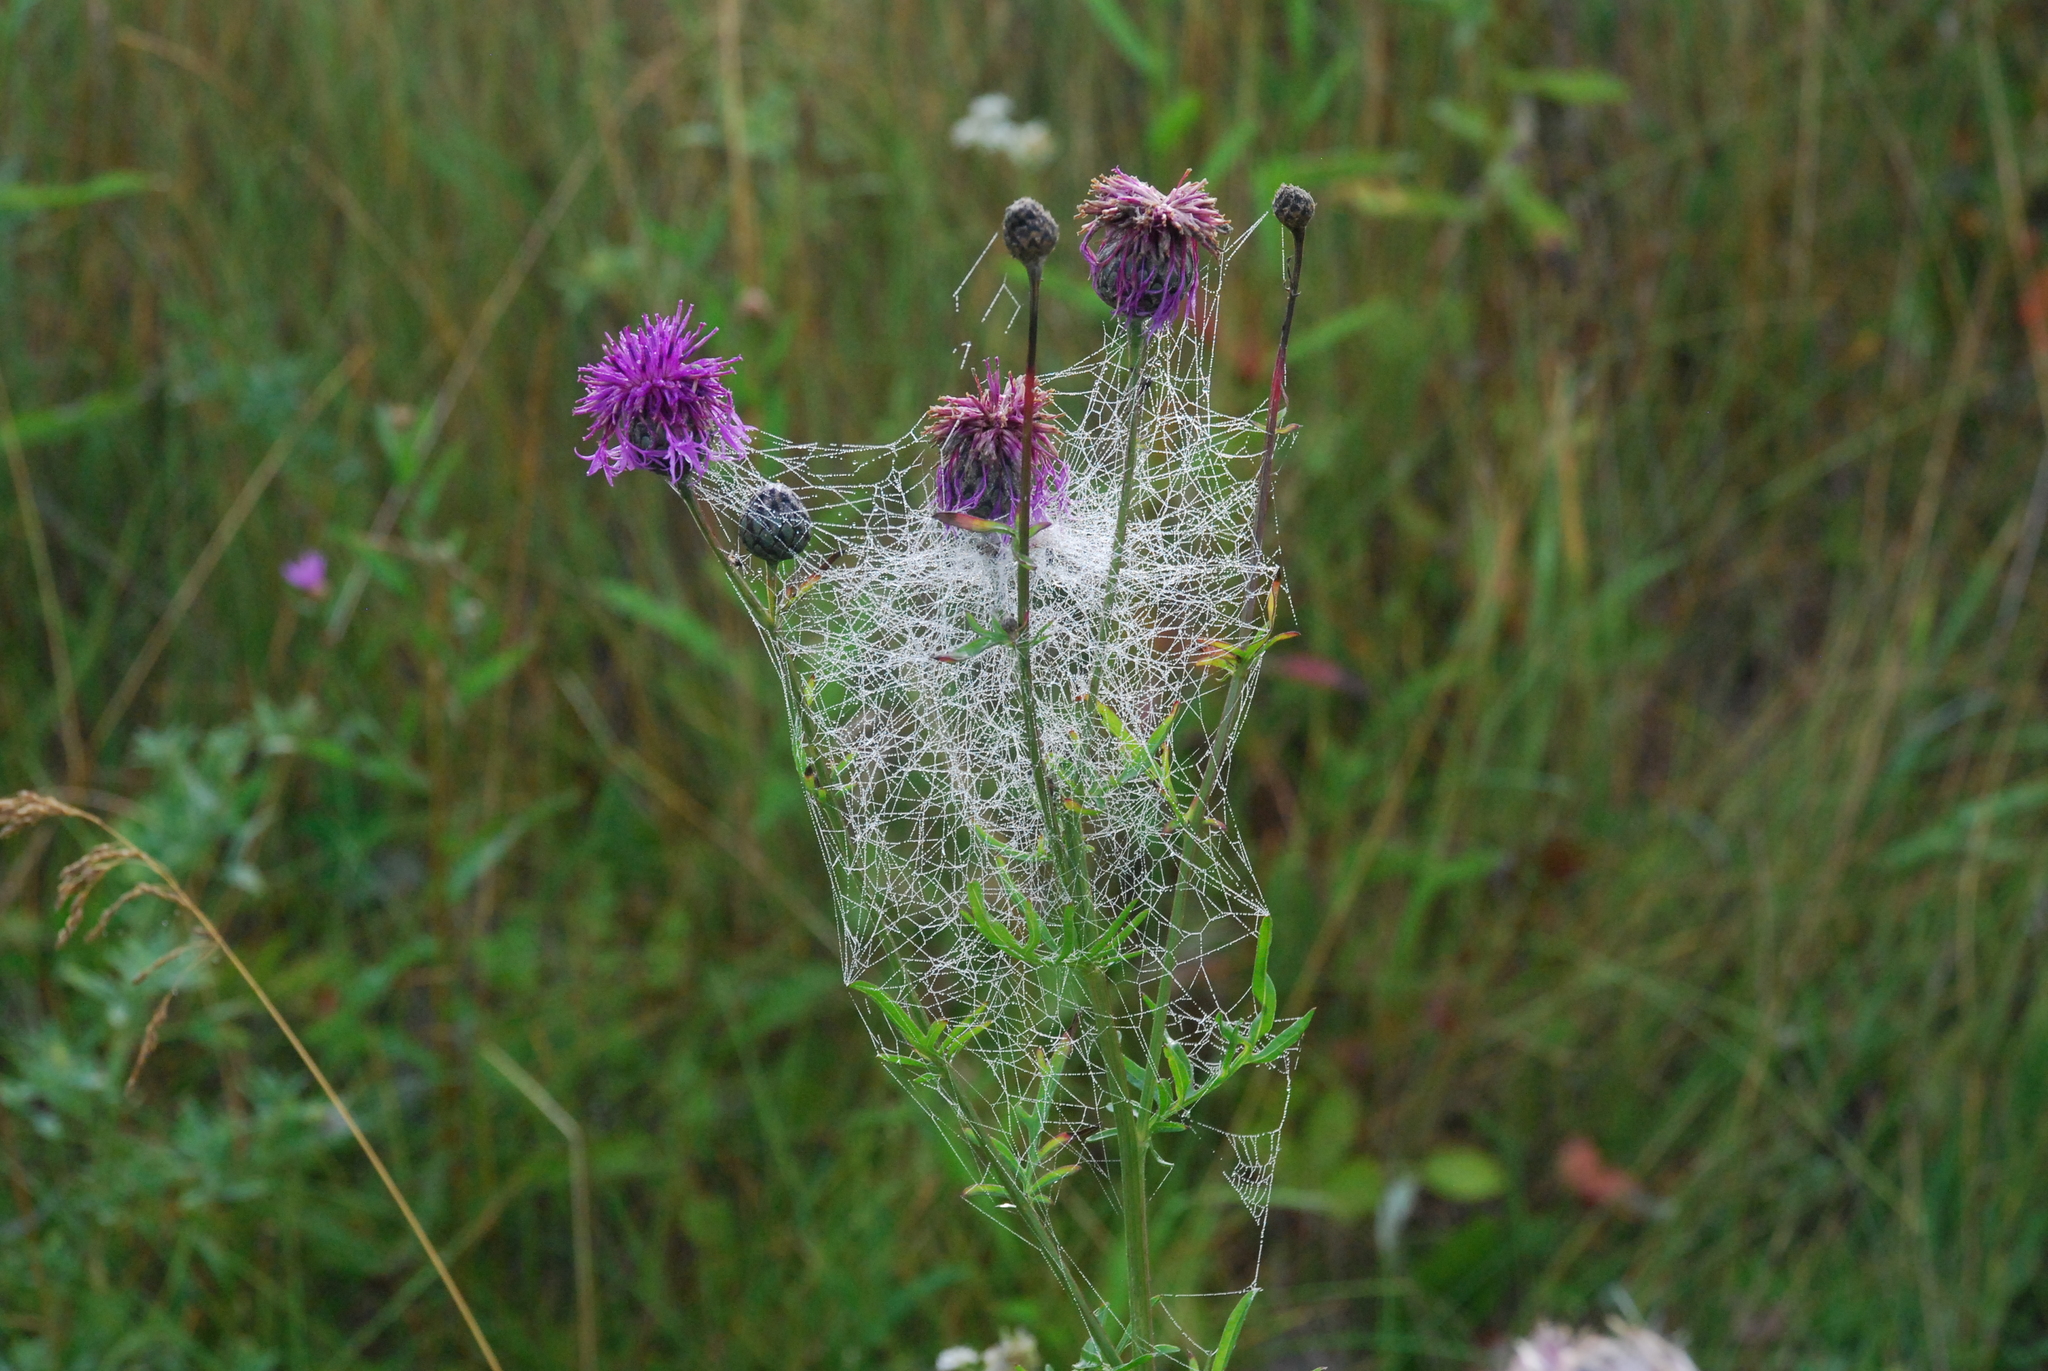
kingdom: Plantae
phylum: Tracheophyta
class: Magnoliopsida
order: Asterales
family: Asteraceae
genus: Centaurea
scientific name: Centaurea scabiosa
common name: Greater knapweed
